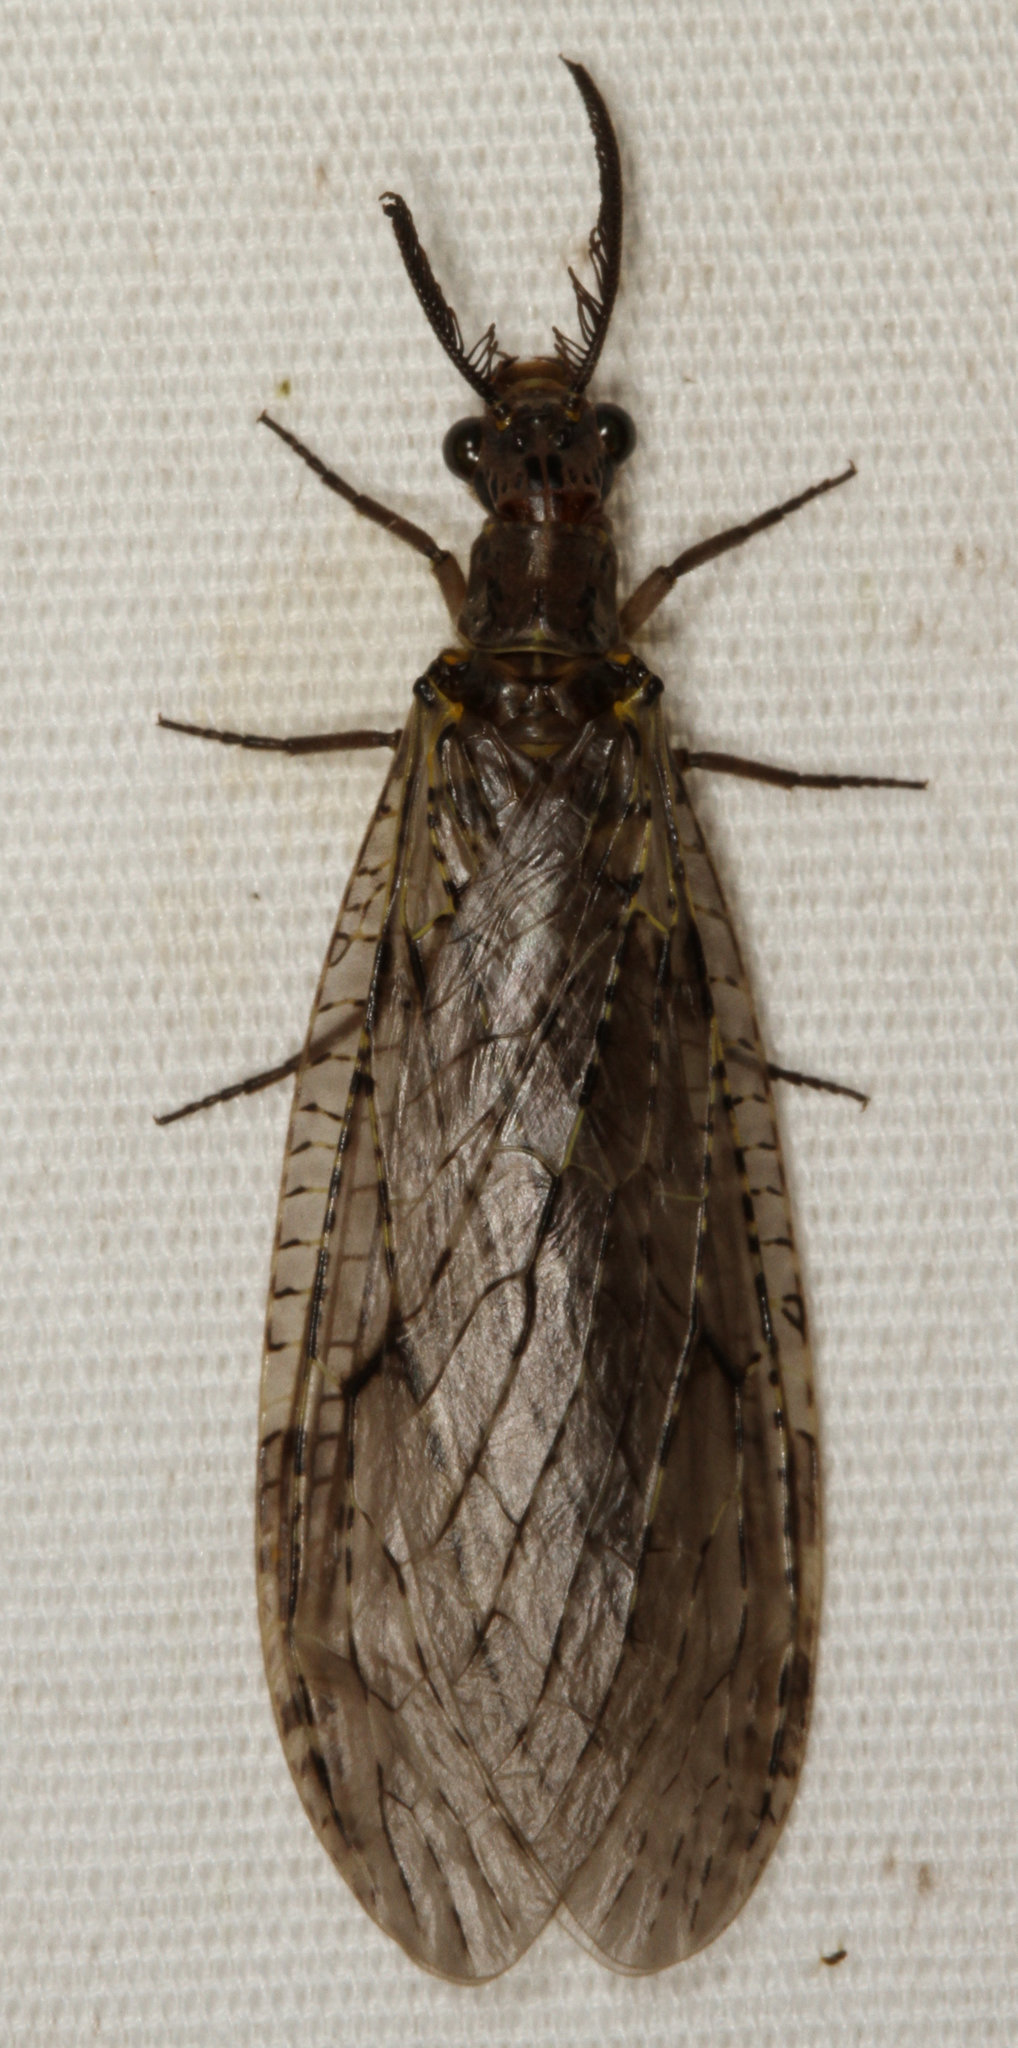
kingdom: Animalia
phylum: Arthropoda
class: Insecta
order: Megaloptera
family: Corydalidae
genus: Chauliodes
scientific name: Chauliodes rastricornis
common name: Spring fishfly
